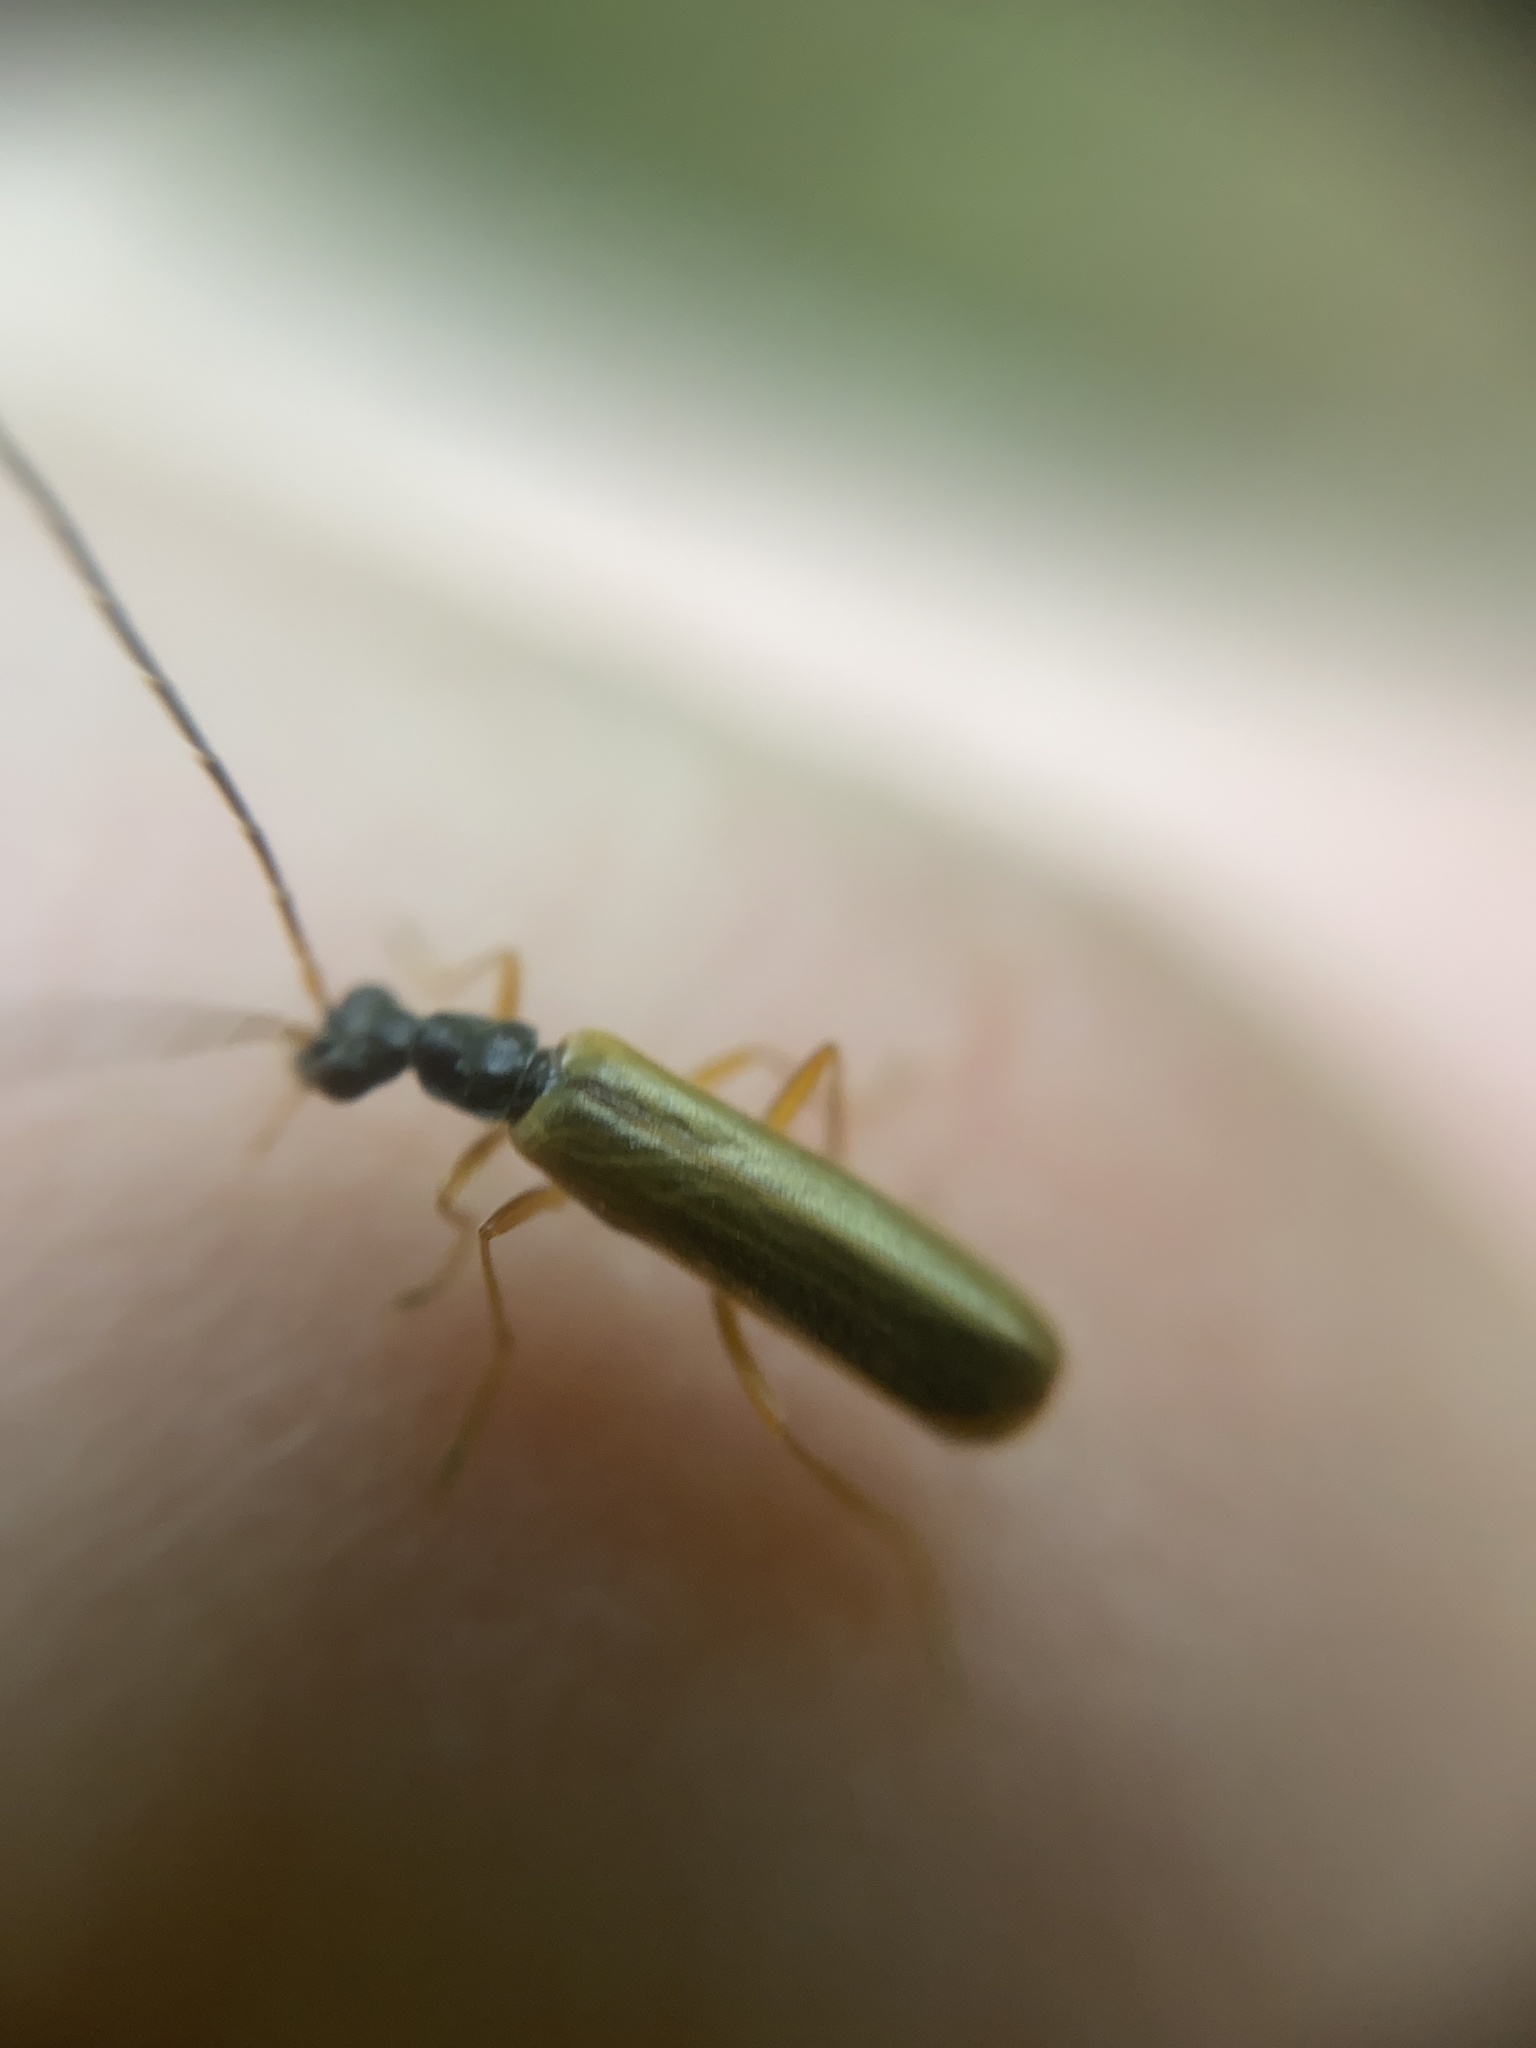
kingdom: Animalia
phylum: Arthropoda
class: Insecta
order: Coleoptera
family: Cantharidae
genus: Rhagonycha
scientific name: Rhagonycha lignosa
